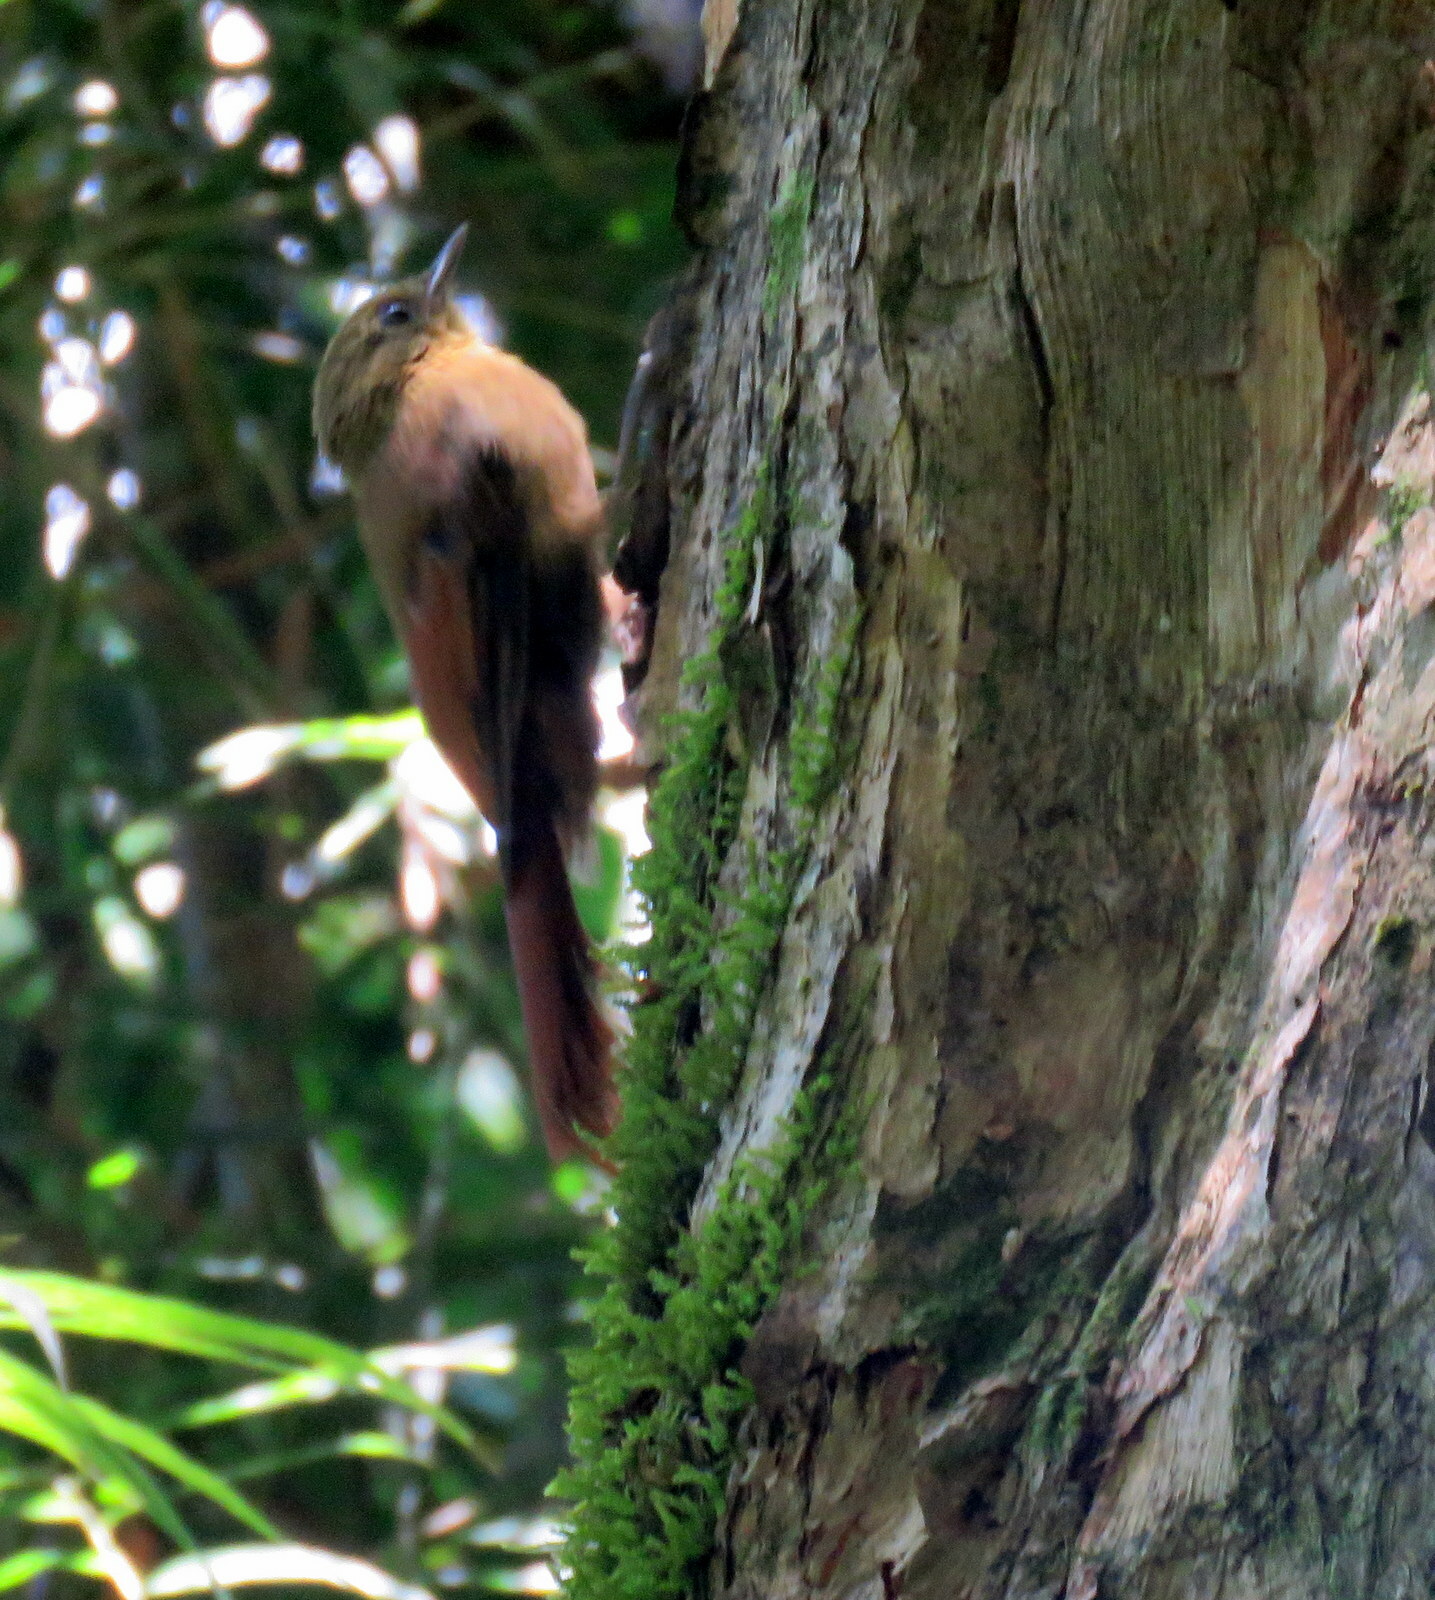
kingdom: Animalia
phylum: Chordata
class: Aves
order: Passeriformes
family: Furnariidae
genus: Sittasomus
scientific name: Sittasomus griseicapillus
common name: Olivaceous woodcreeper
